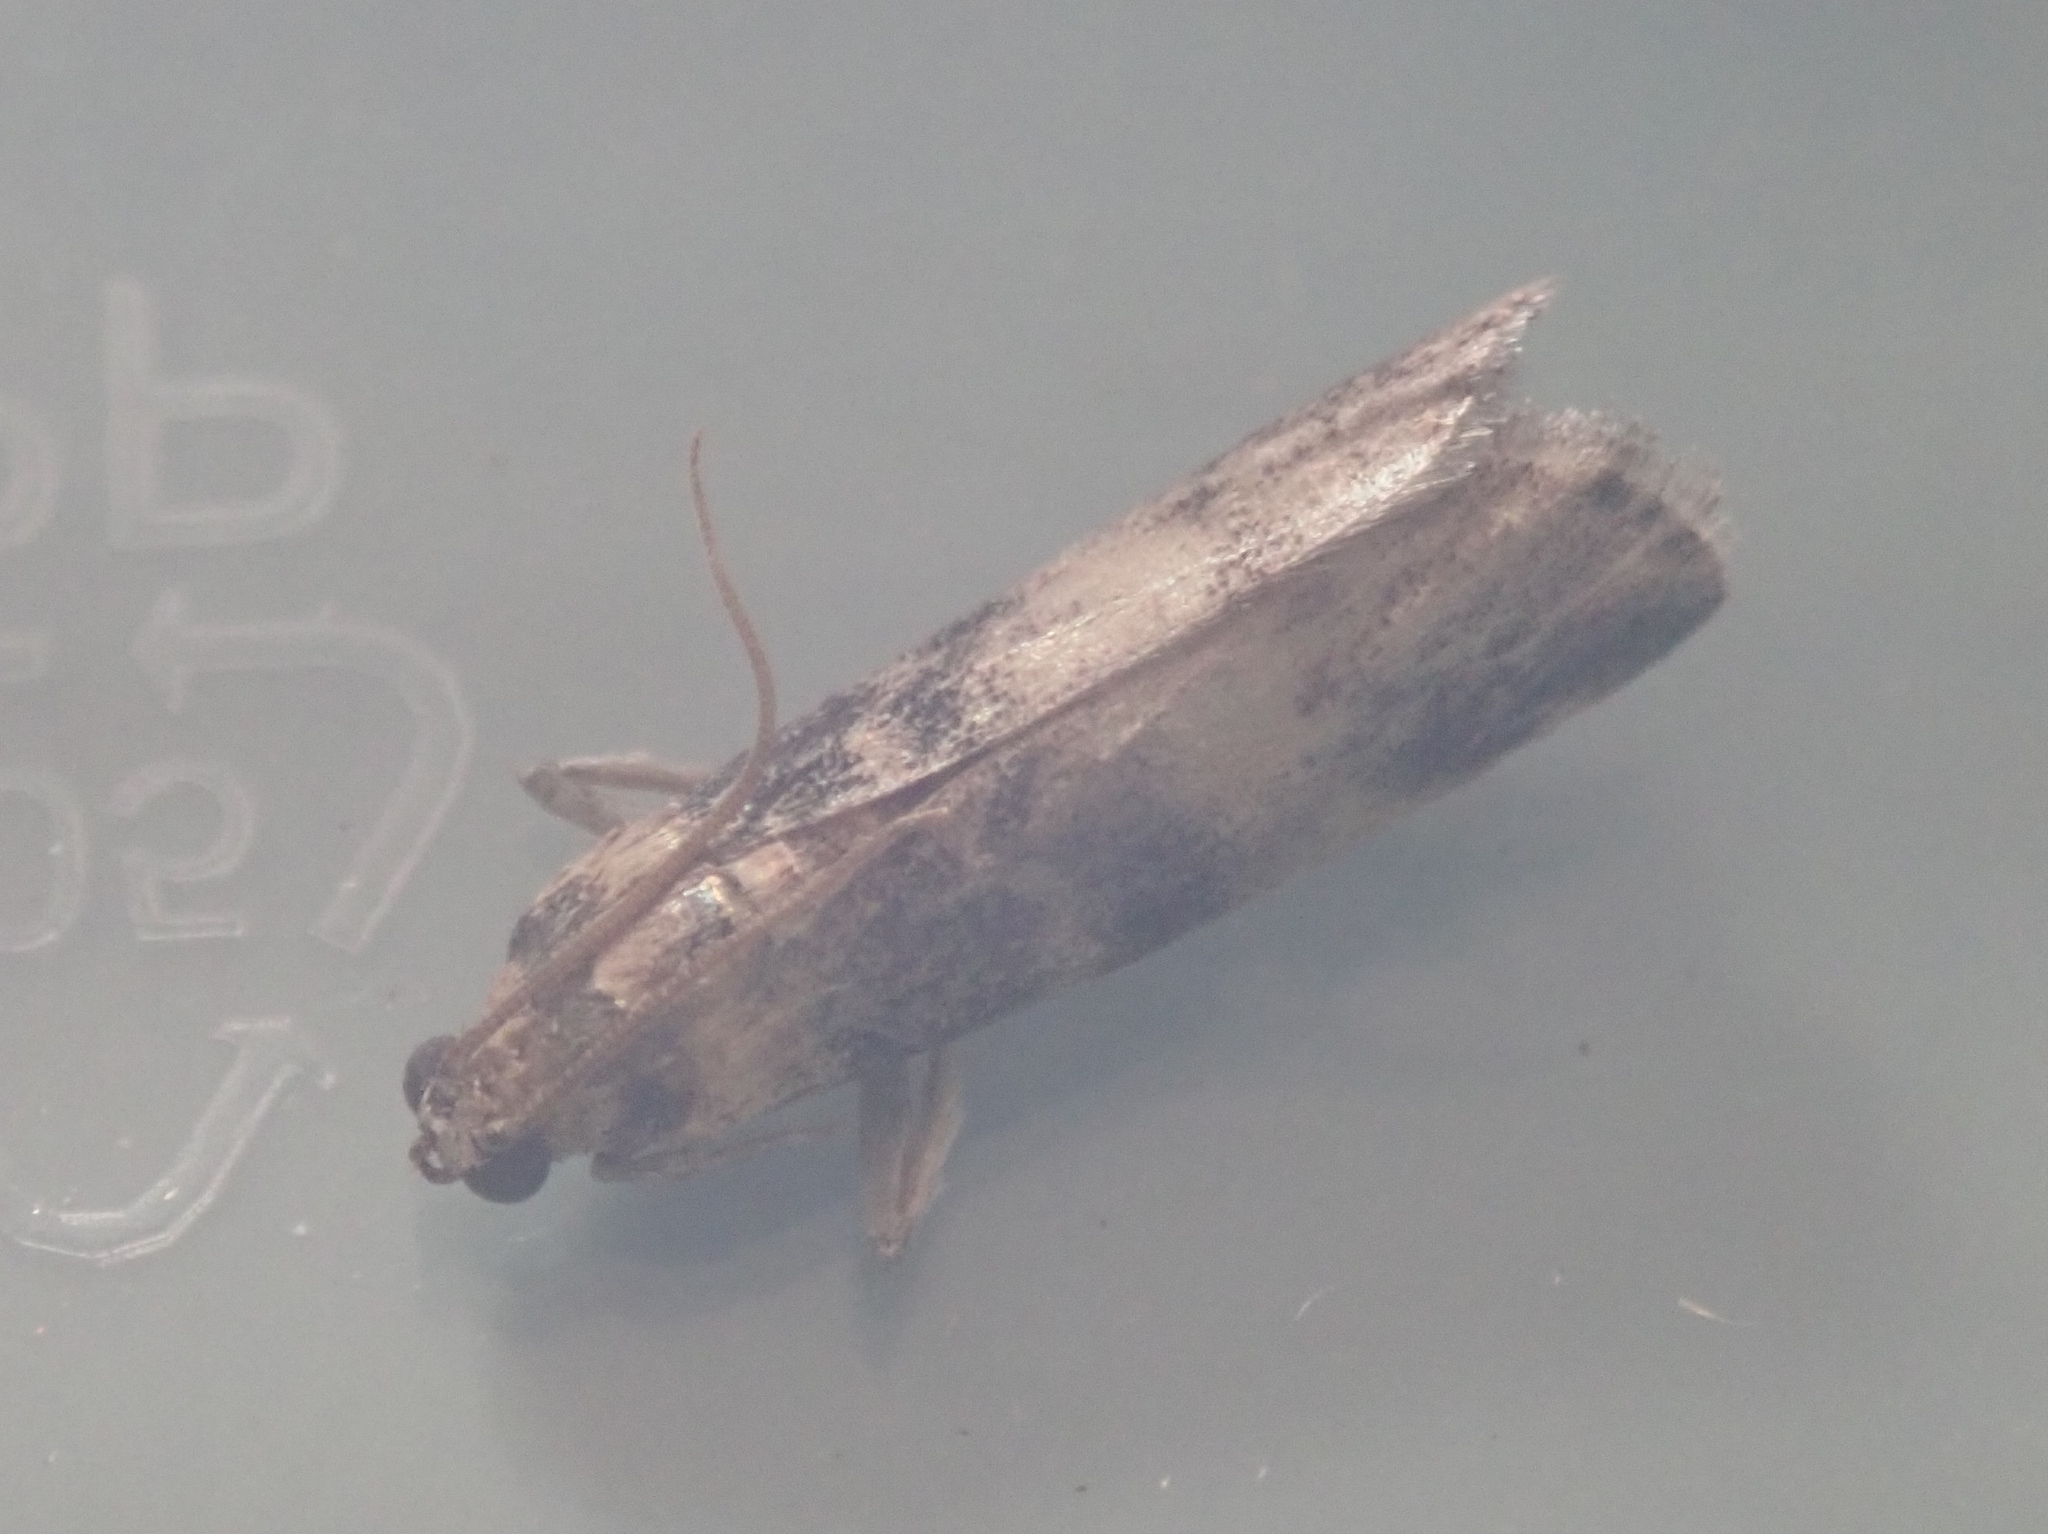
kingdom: Animalia
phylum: Arthropoda
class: Insecta
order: Lepidoptera
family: Pyralidae
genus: Euzophera
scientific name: Euzophera pinguis
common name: Ash-bark knot-horn
